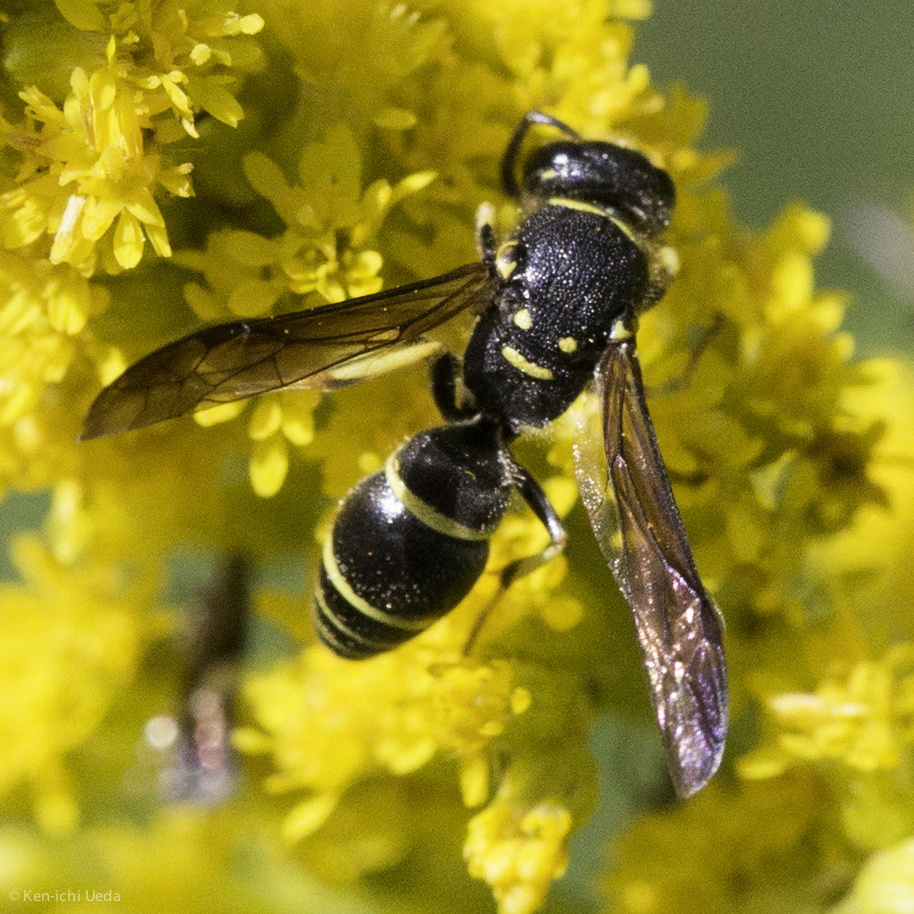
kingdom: Animalia
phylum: Arthropoda
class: Insecta
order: Hymenoptera
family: Vespidae
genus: Ancistrocerus
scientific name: Ancistrocerus adiabatus
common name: Bramble mason wasp
